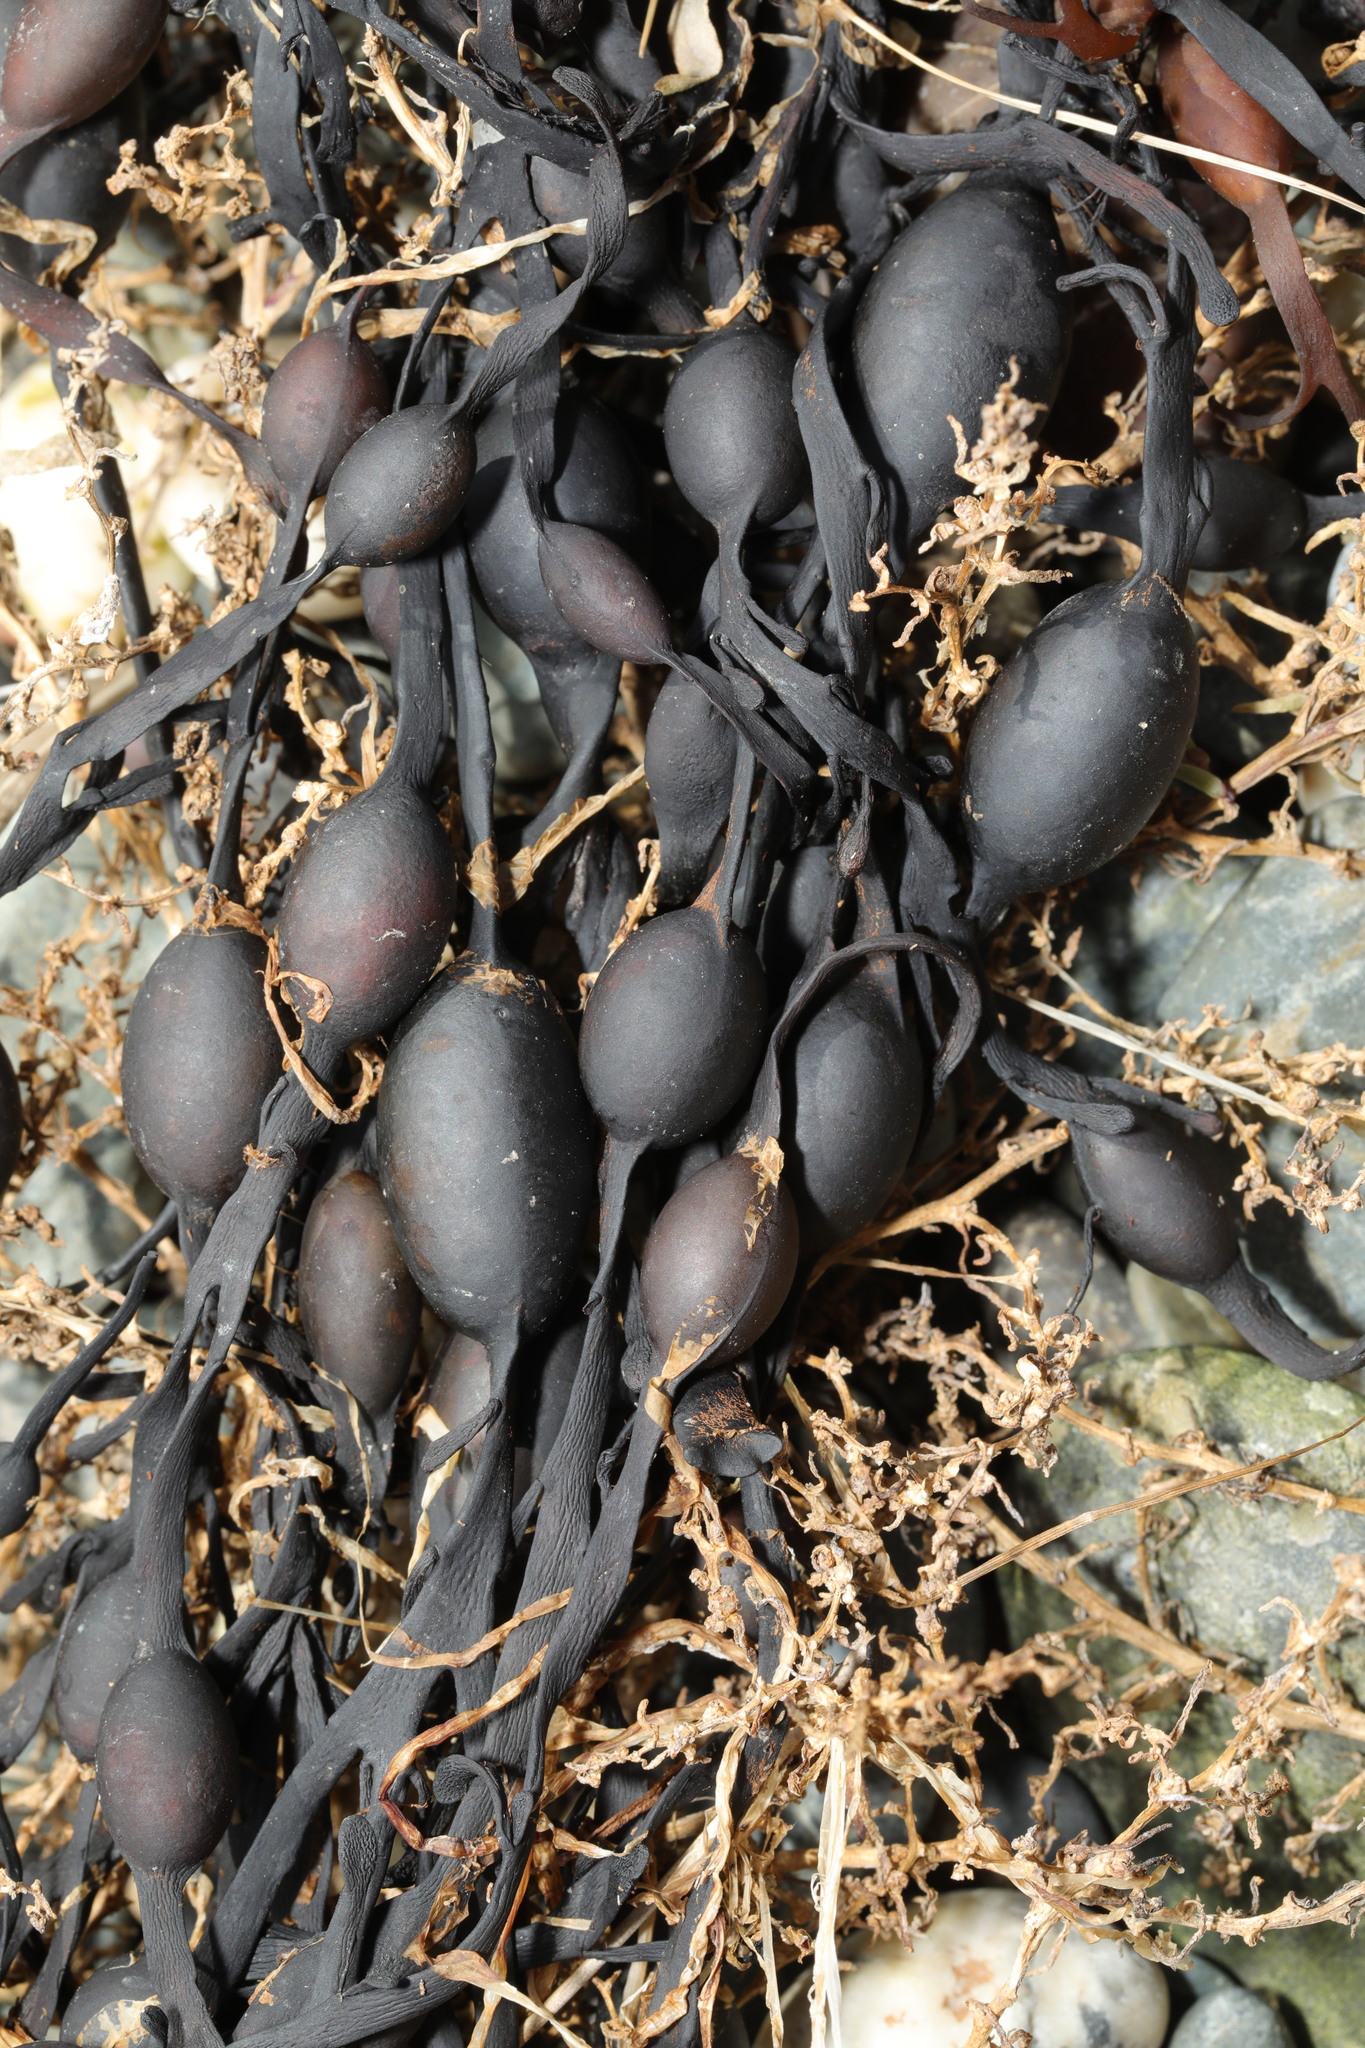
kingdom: Chromista
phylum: Ochrophyta
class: Phaeophyceae
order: Fucales
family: Fucaceae
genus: Ascophyllum
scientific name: Ascophyllum nodosum
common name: Knotted wrack
